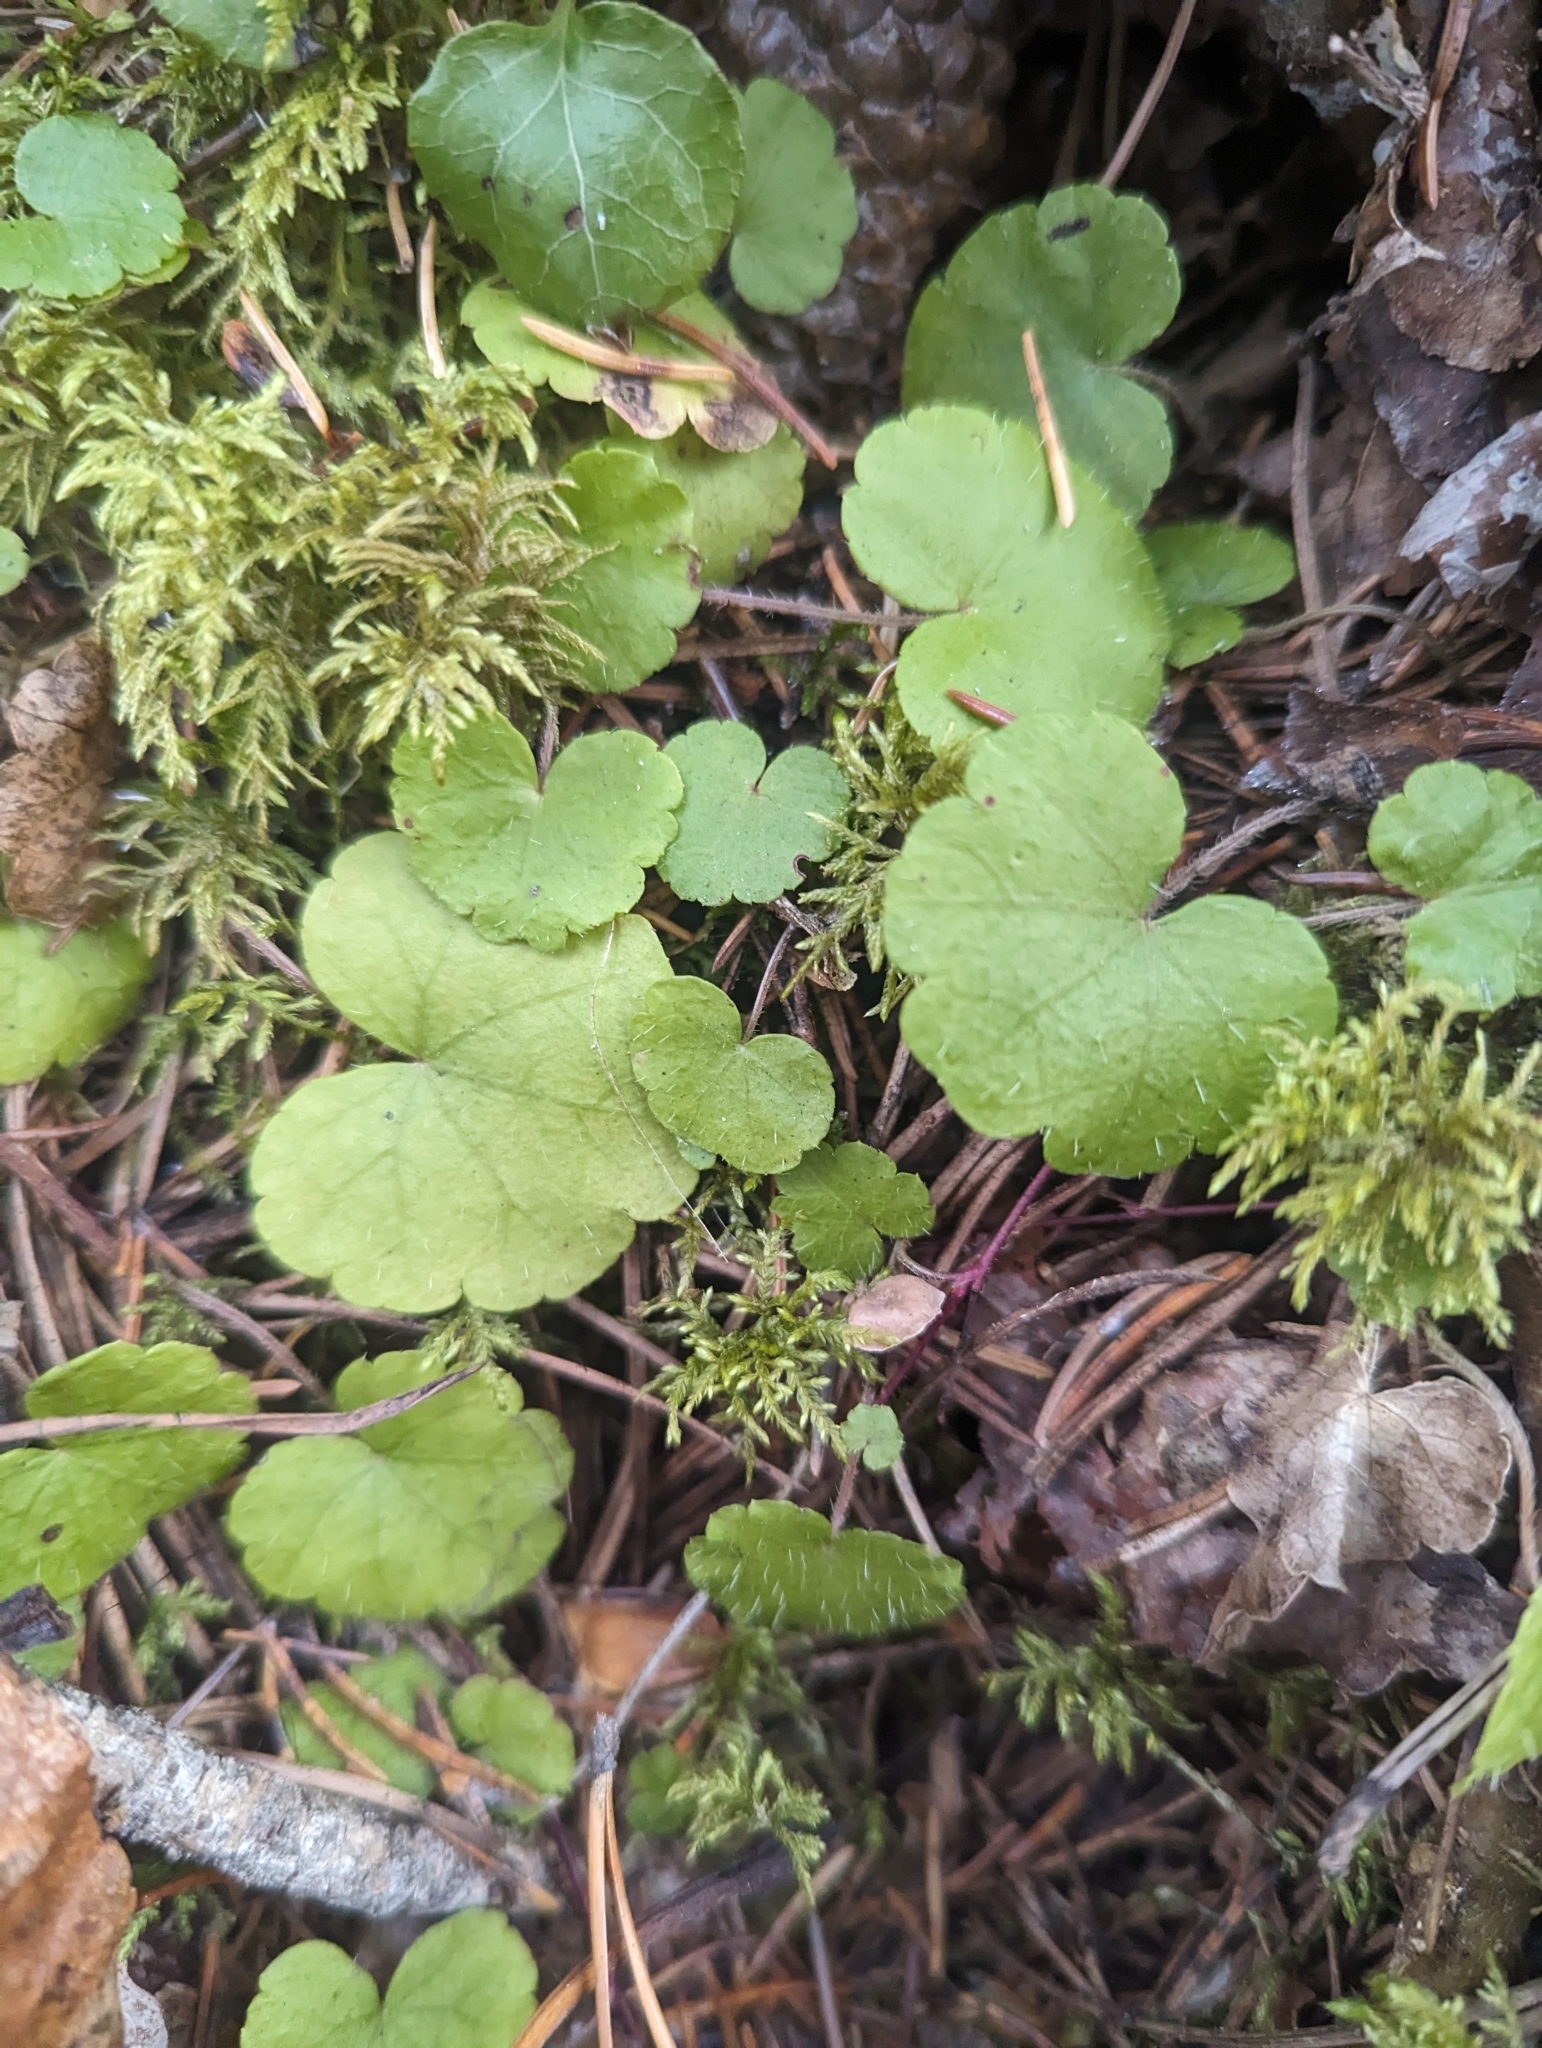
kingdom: Plantae
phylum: Tracheophyta
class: Magnoliopsida
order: Saxifragales
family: Saxifragaceae
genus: Mitella
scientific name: Mitella nuda
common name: Bare-stemmed bishop's-cap
